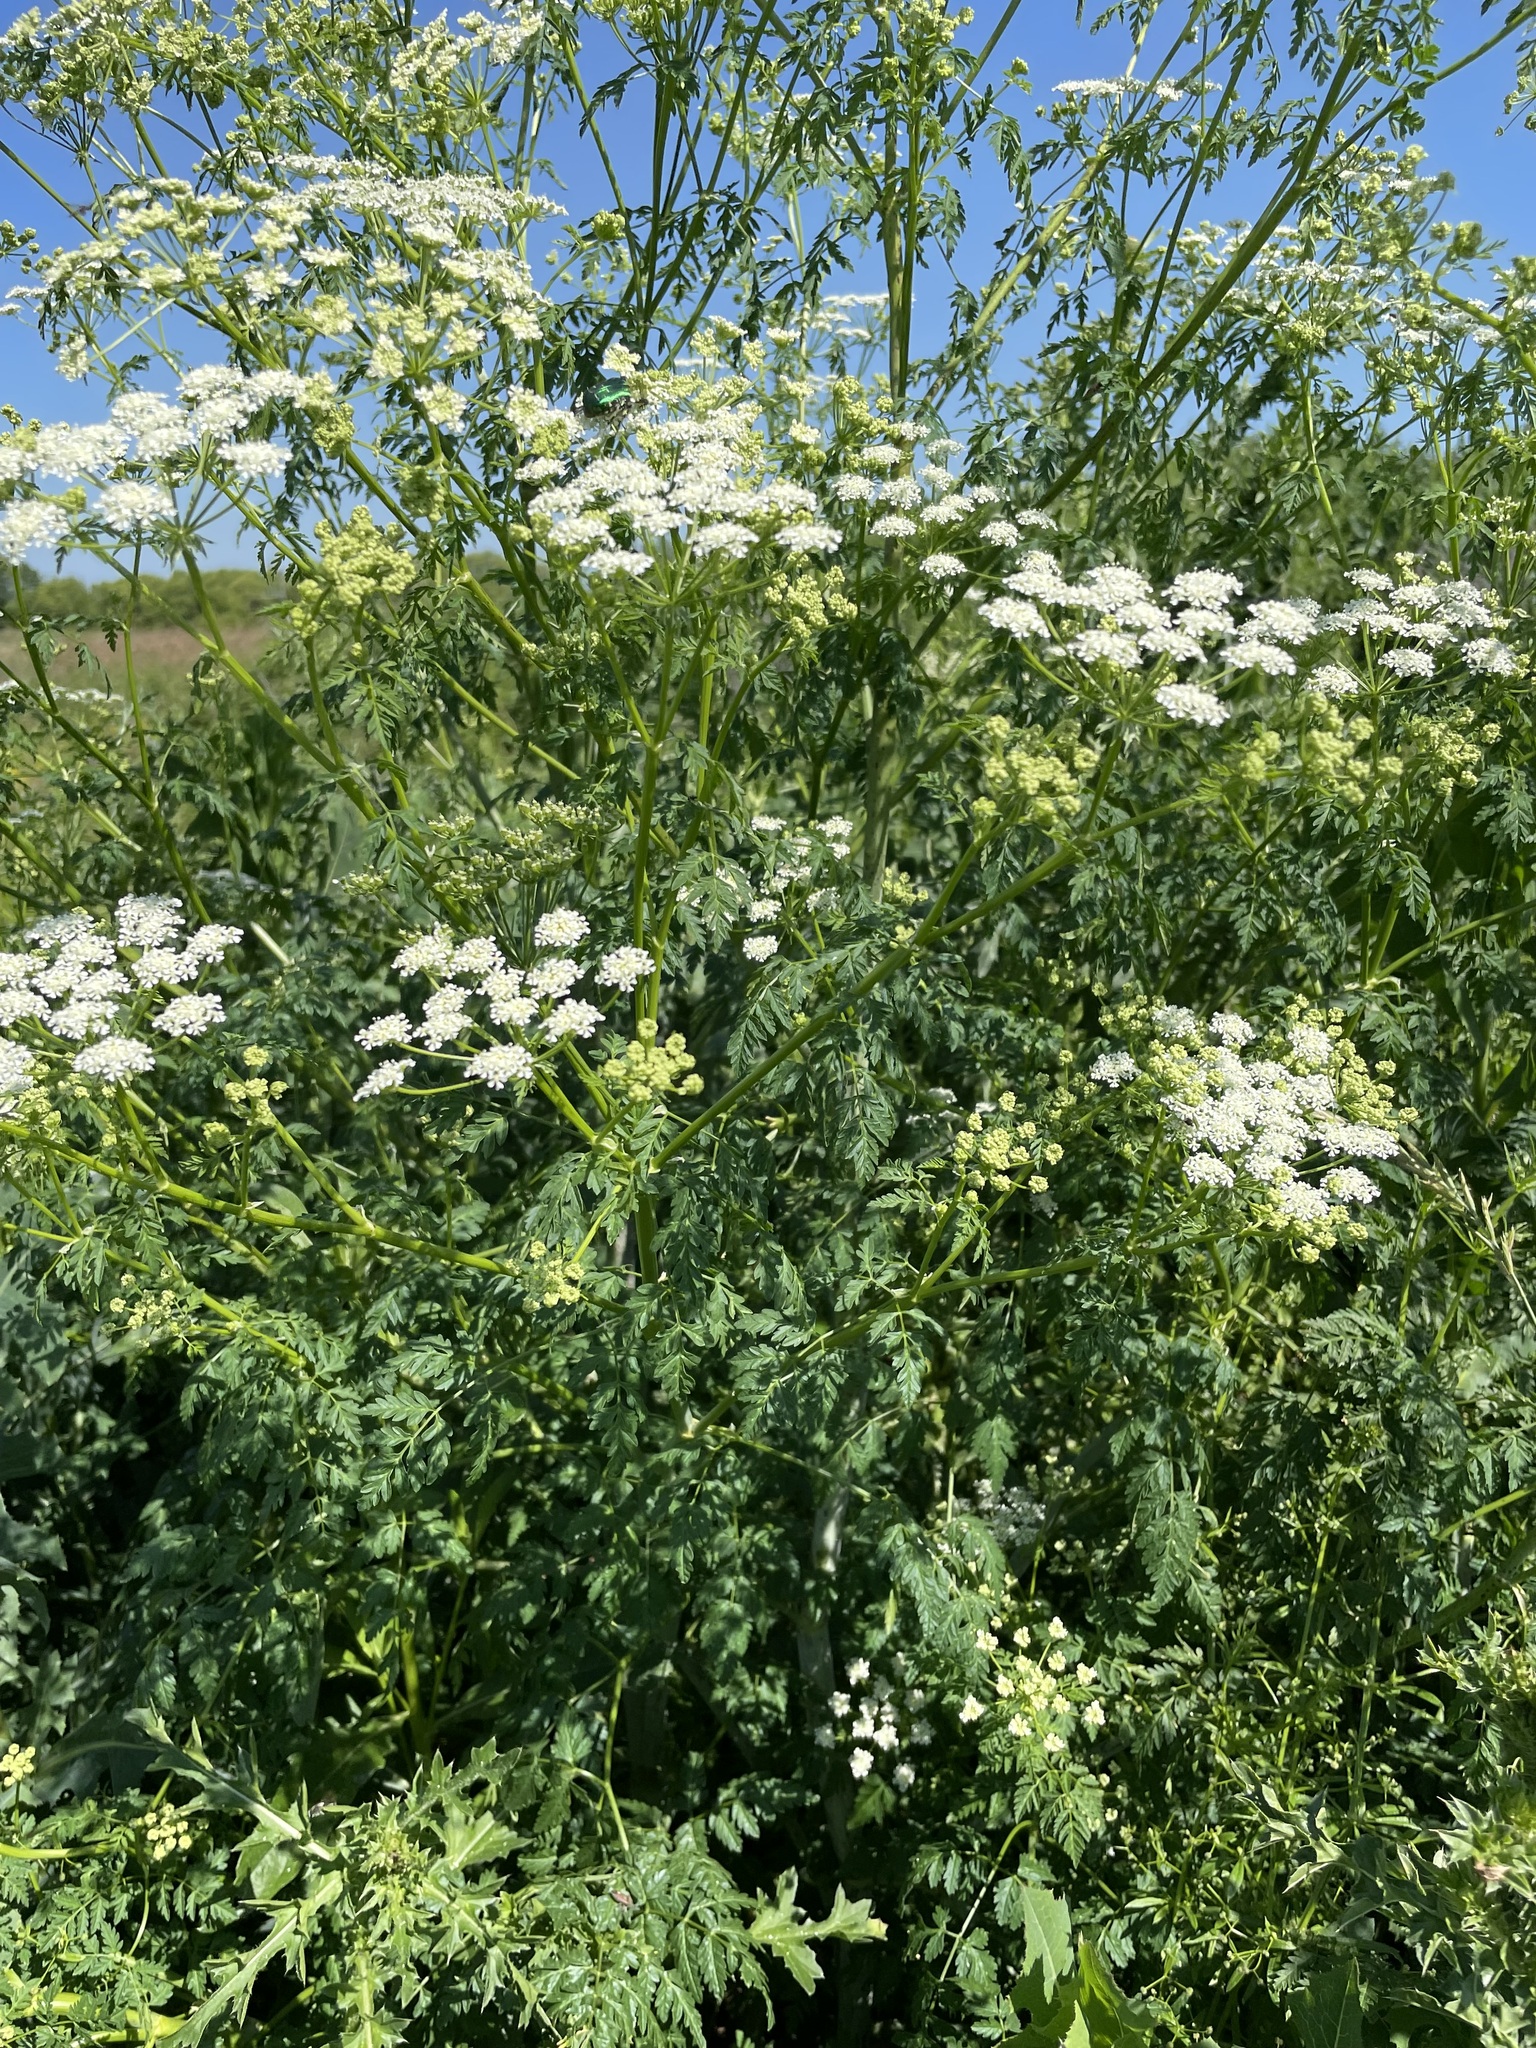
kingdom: Plantae
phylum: Tracheophyta
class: Magnoliopsida
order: Apiales
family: Apiaceae
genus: Conium
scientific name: Conium maculatum
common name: Hemlock
